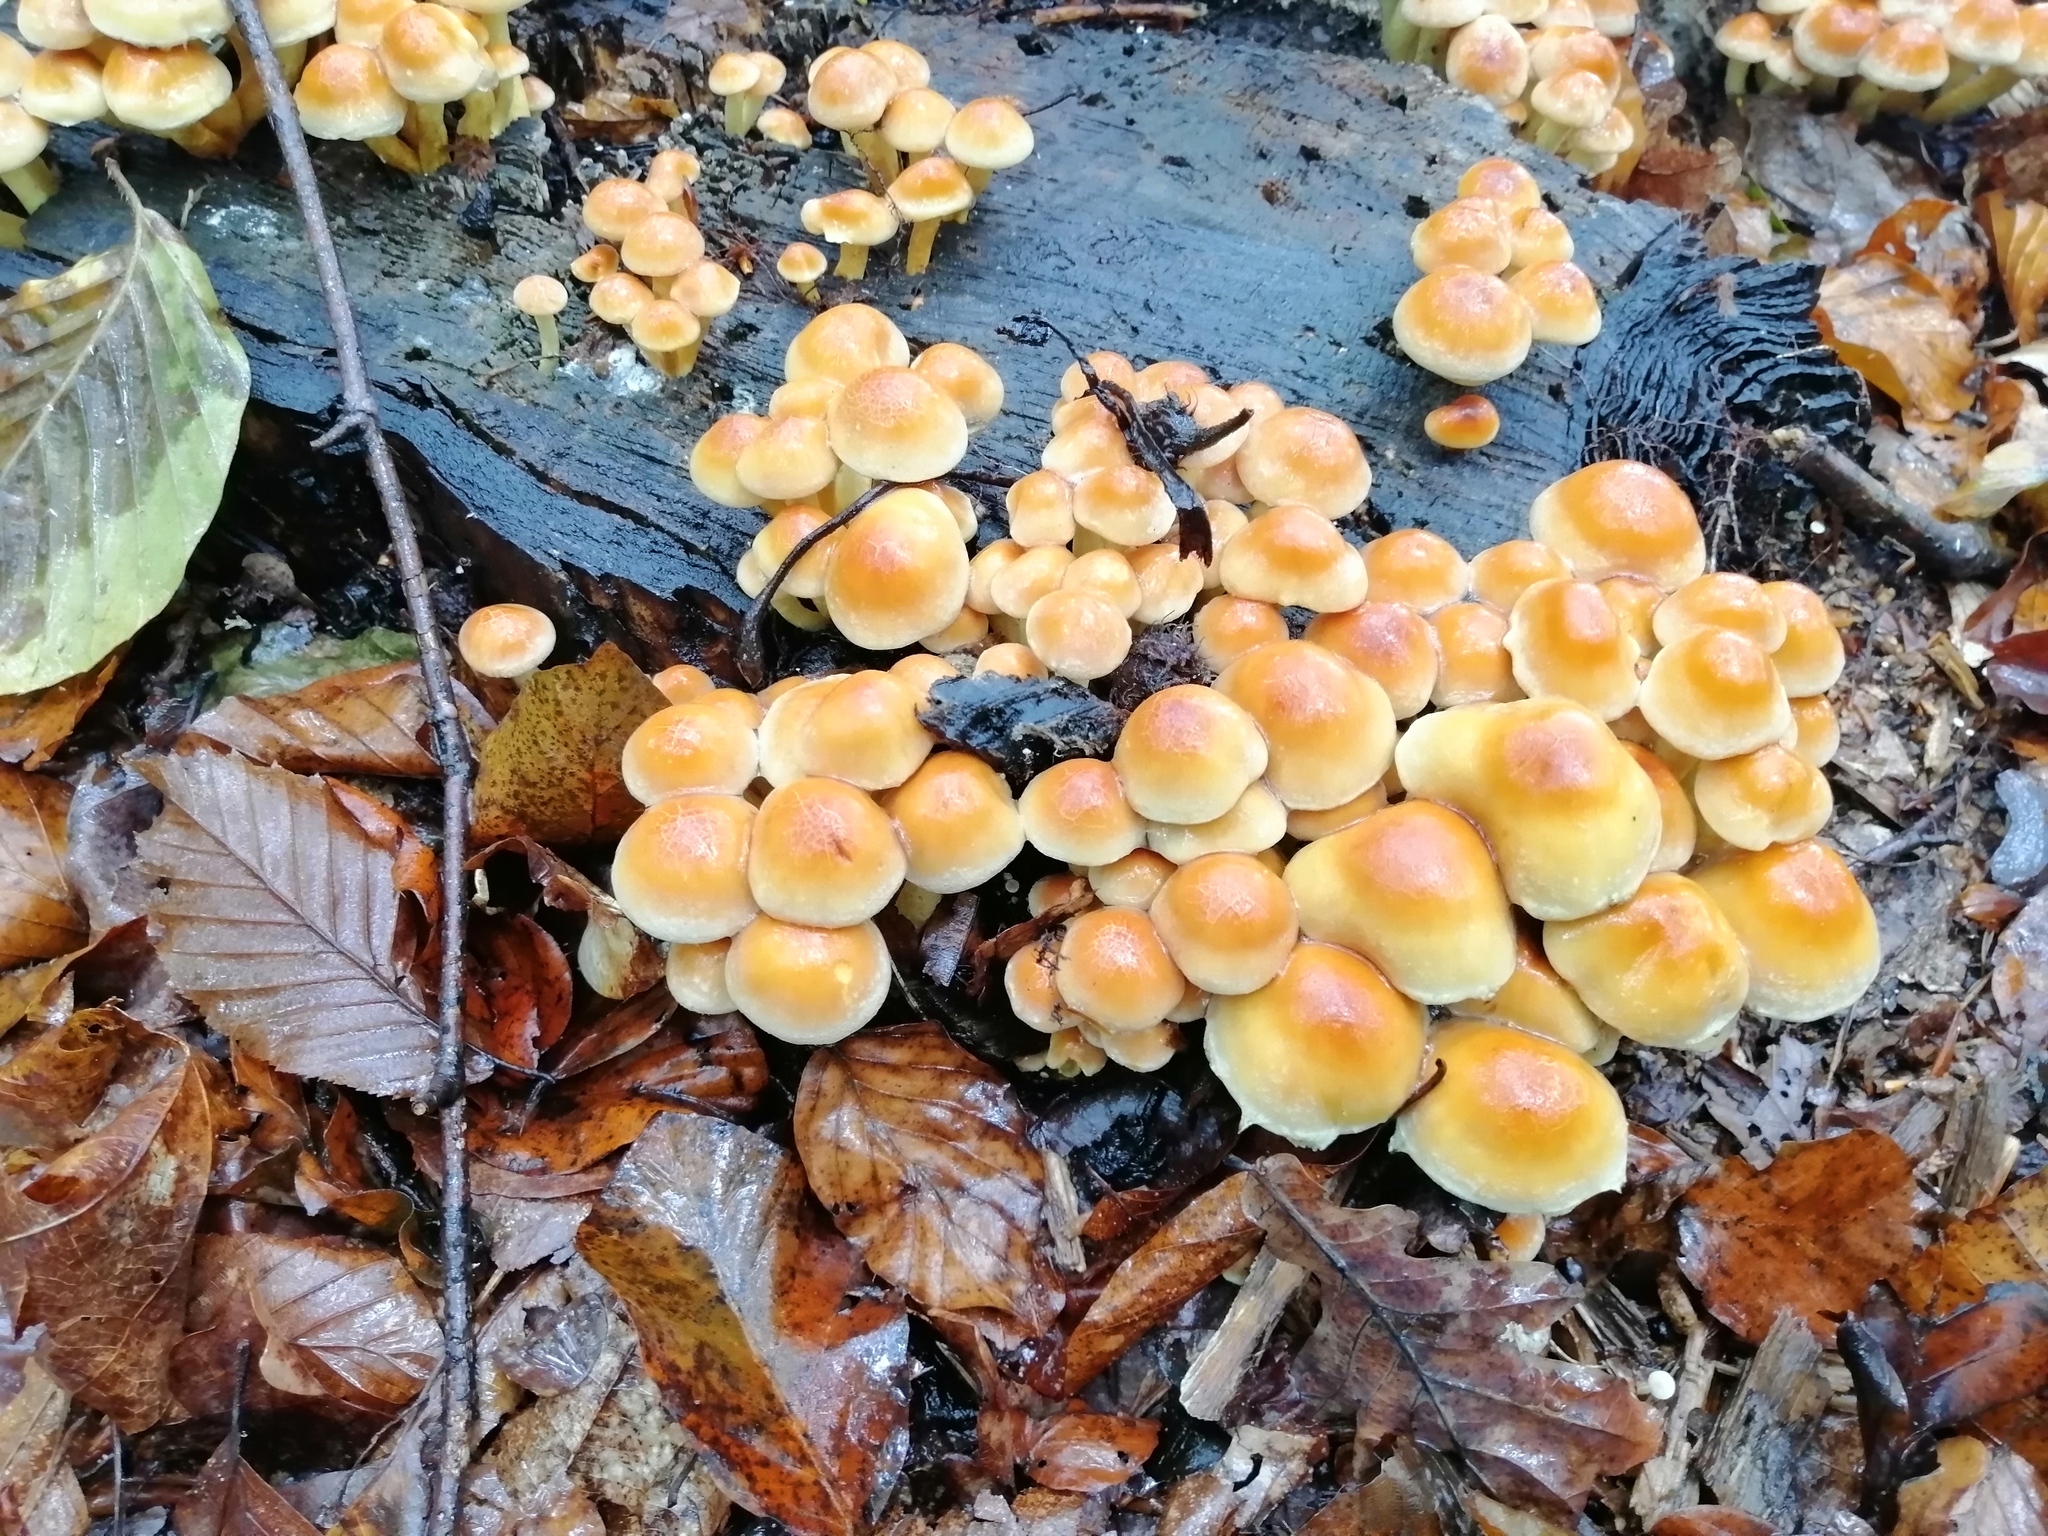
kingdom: Fungi
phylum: Basidiomycota
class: Agaricomycetes
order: Agaricales
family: Strophariaceae
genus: Hypholoma
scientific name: Hypholoma fasciculare
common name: Sulphur tuft
